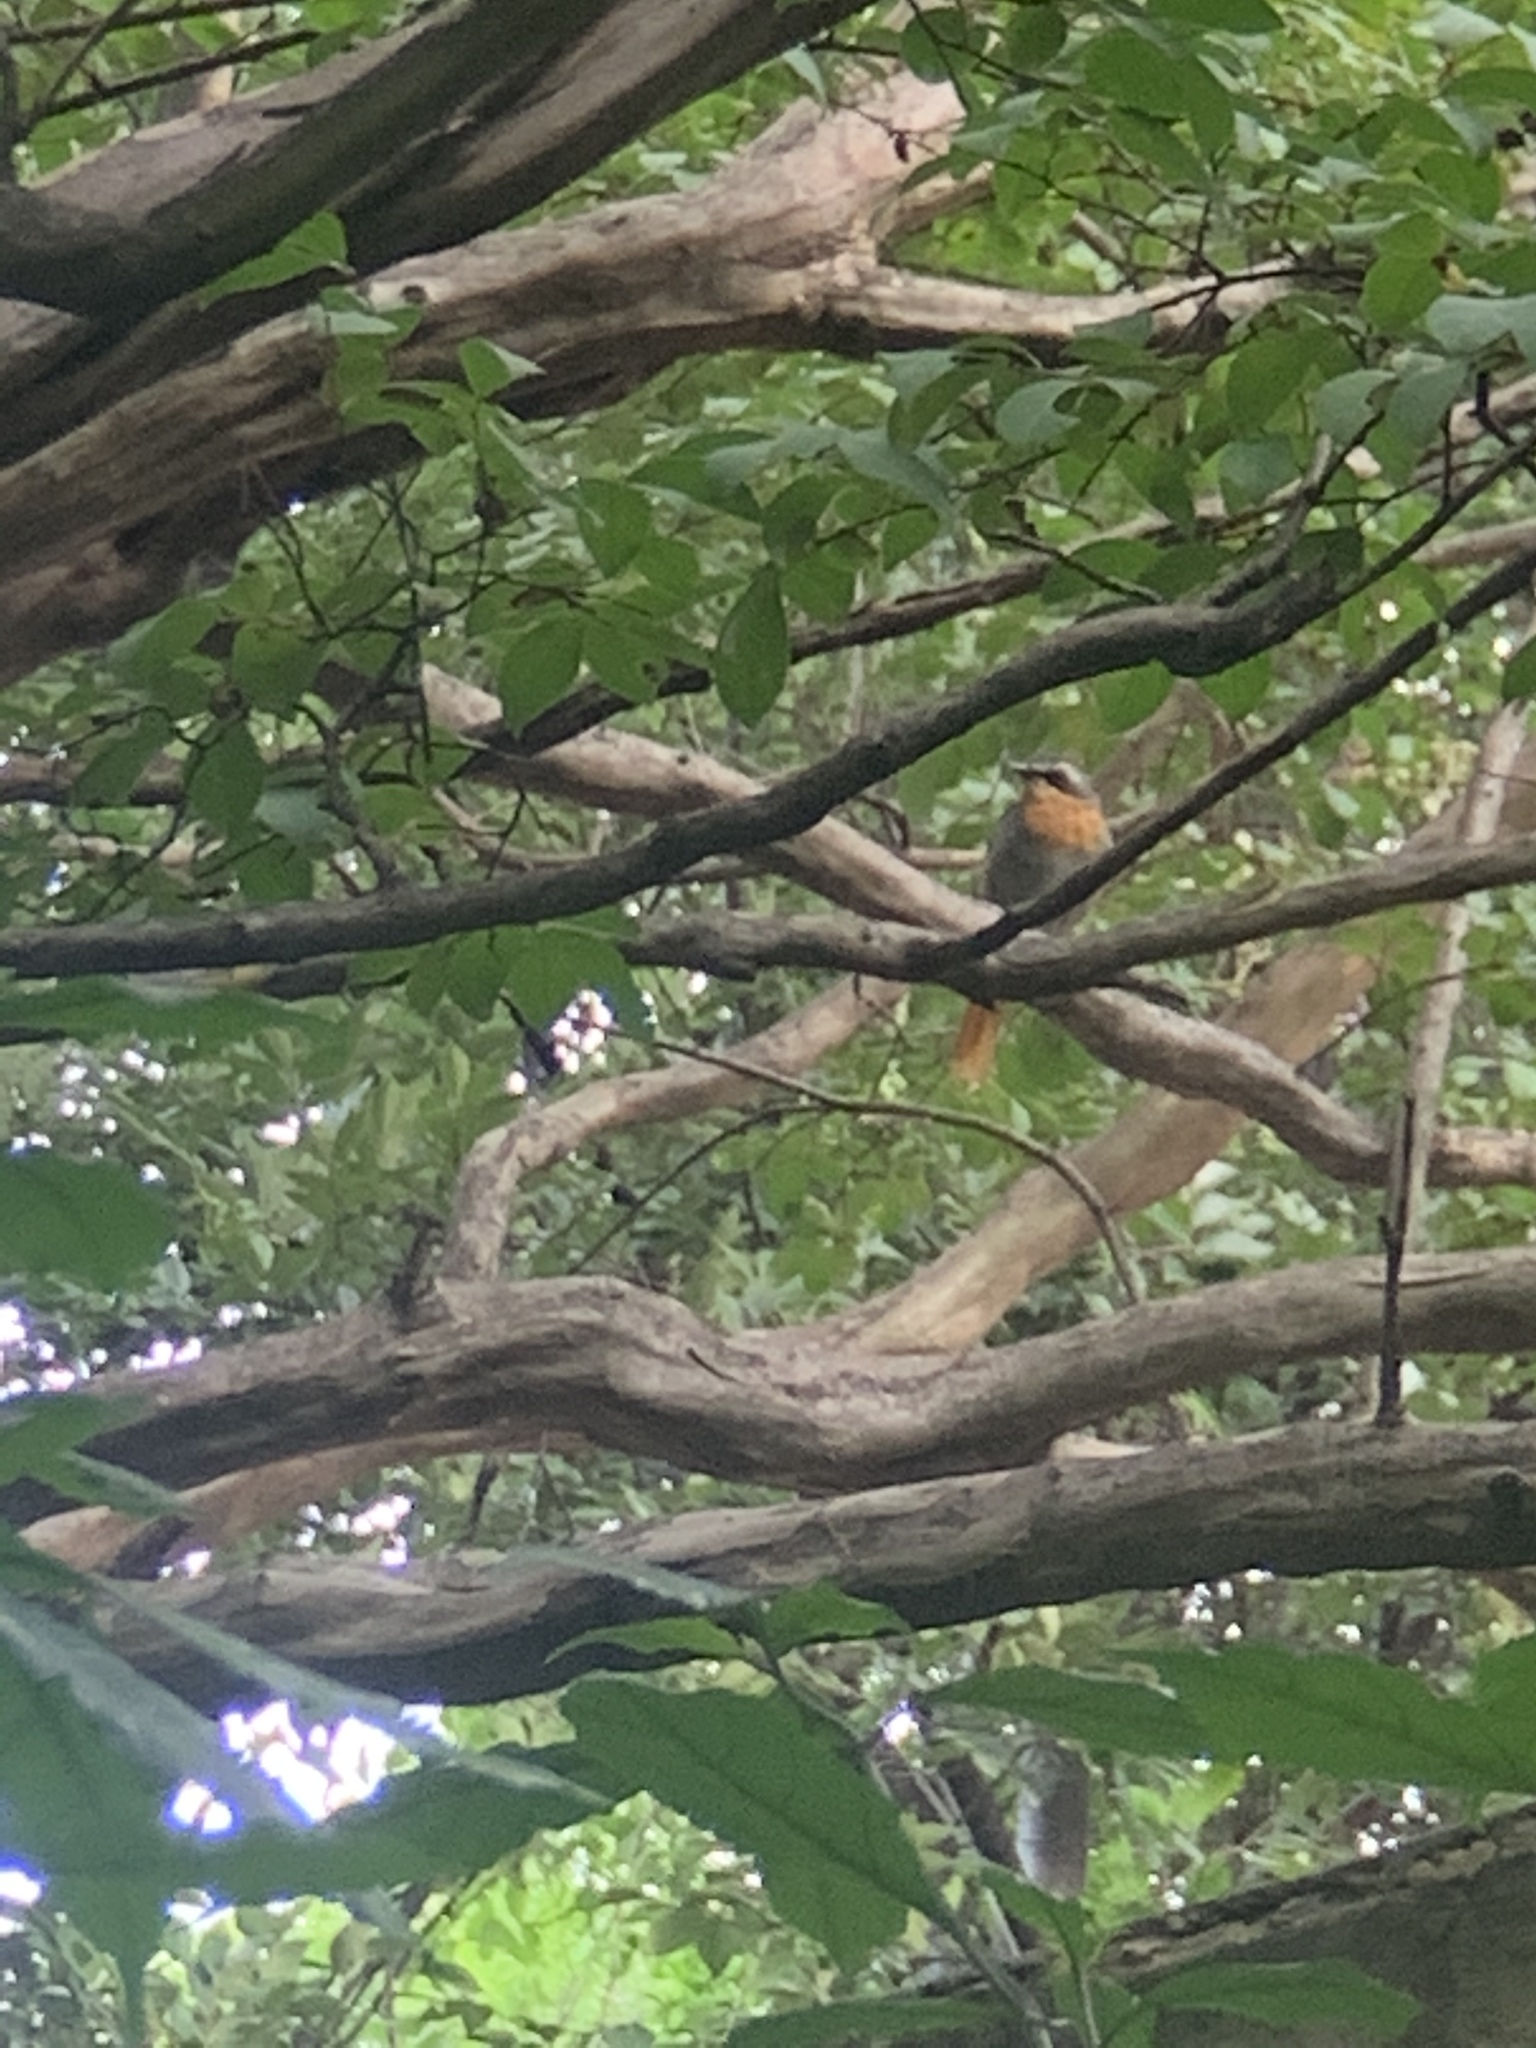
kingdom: Animalia
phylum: Chordata
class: Aves
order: Passeriformes
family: Muscicapidae
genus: Cossypha
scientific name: Cossypha caffra
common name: Cape robin-chat
